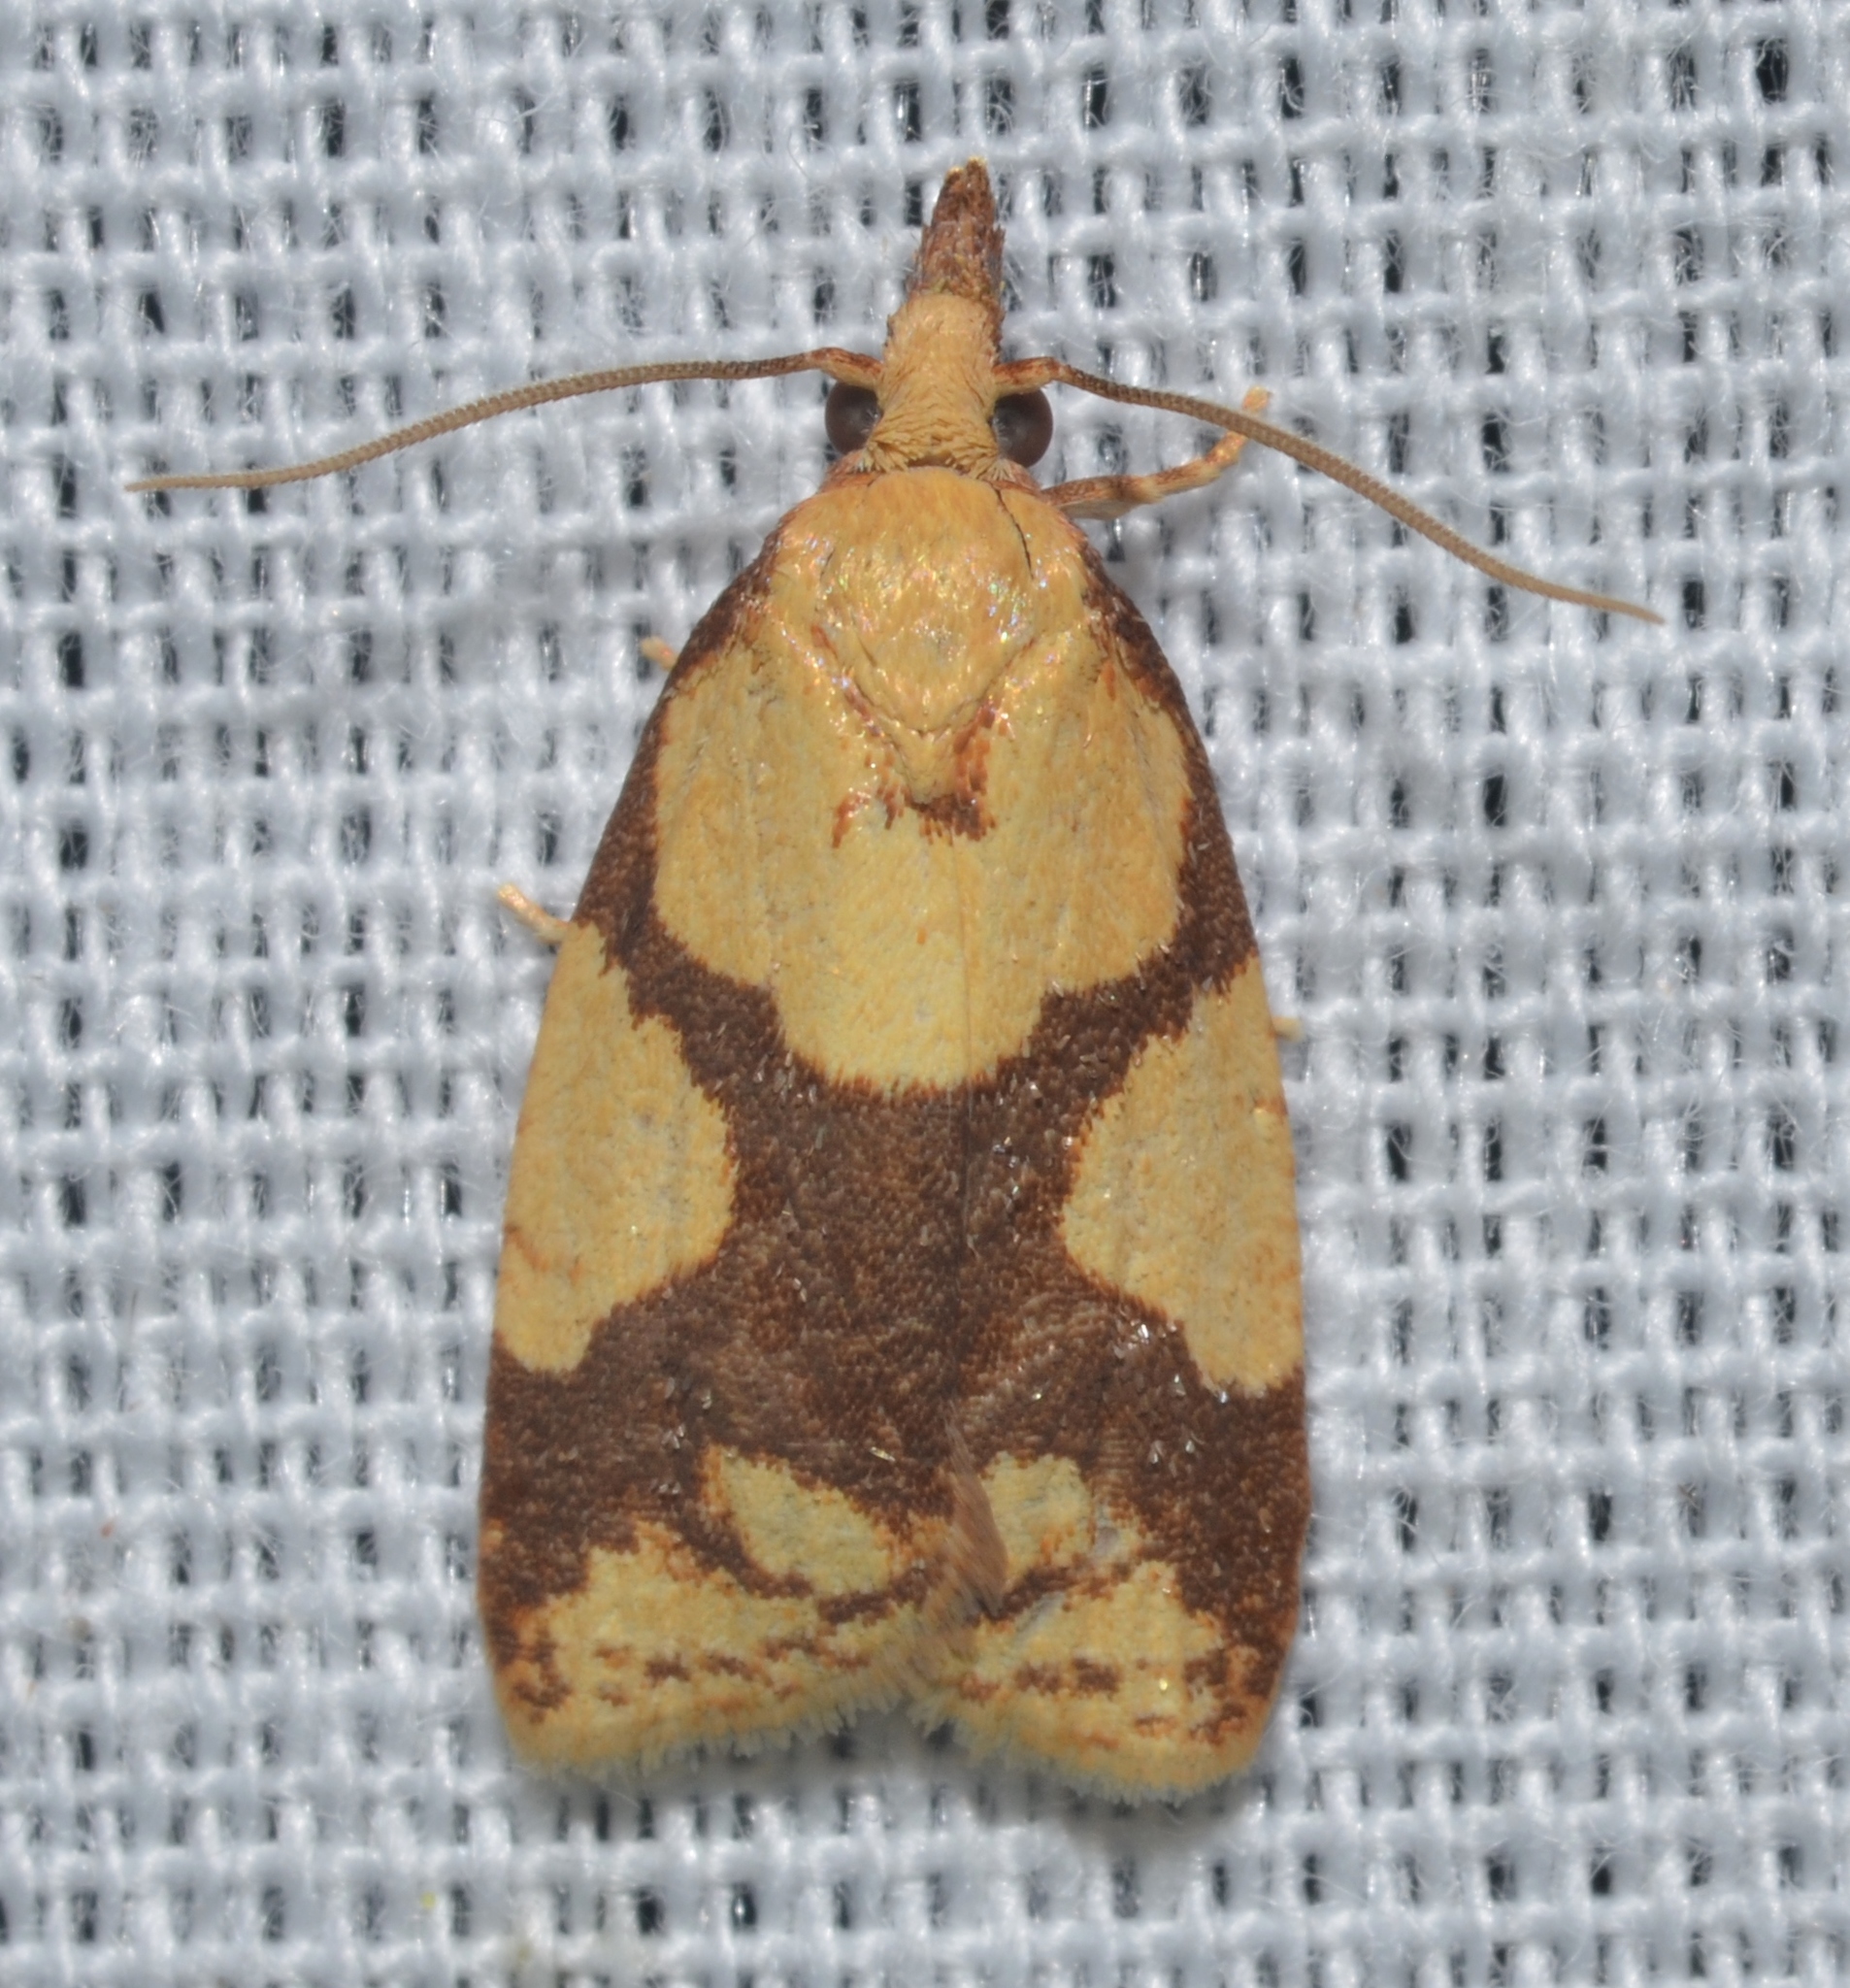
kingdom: Animalia
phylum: Arthropoda
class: Insecta
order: Lepidoptera
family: Tortricidae
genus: Cenopis
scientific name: Cenopis ferreana
